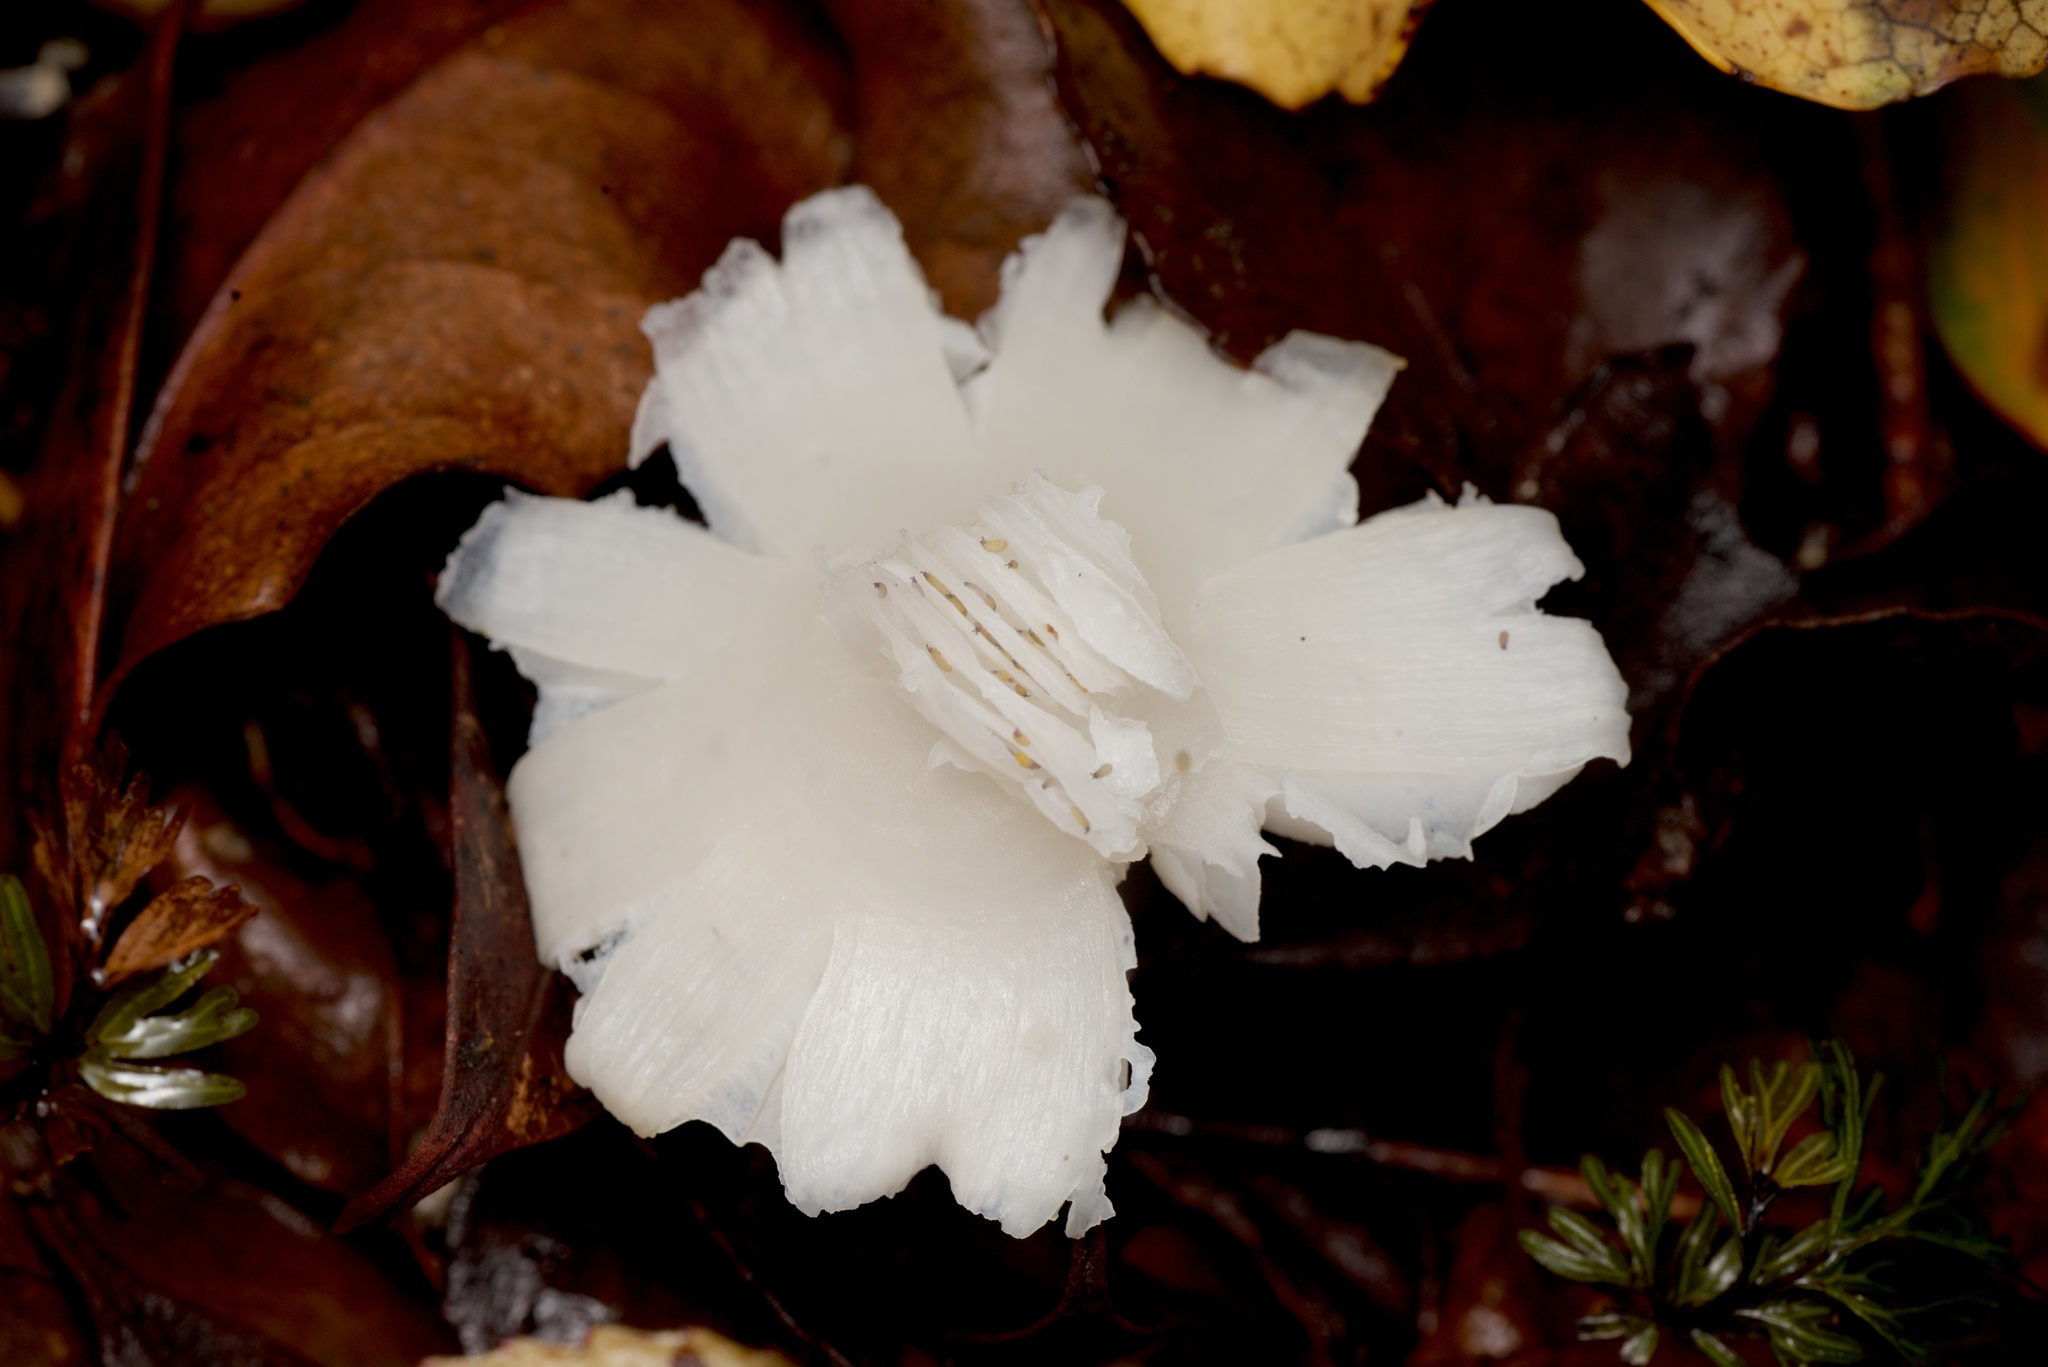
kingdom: Fungi
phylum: Basidiomycota
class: Agaricomycetes
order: Agaricales
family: Hygrophoraceae
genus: Humidicutis
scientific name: Humidicutis mavis
